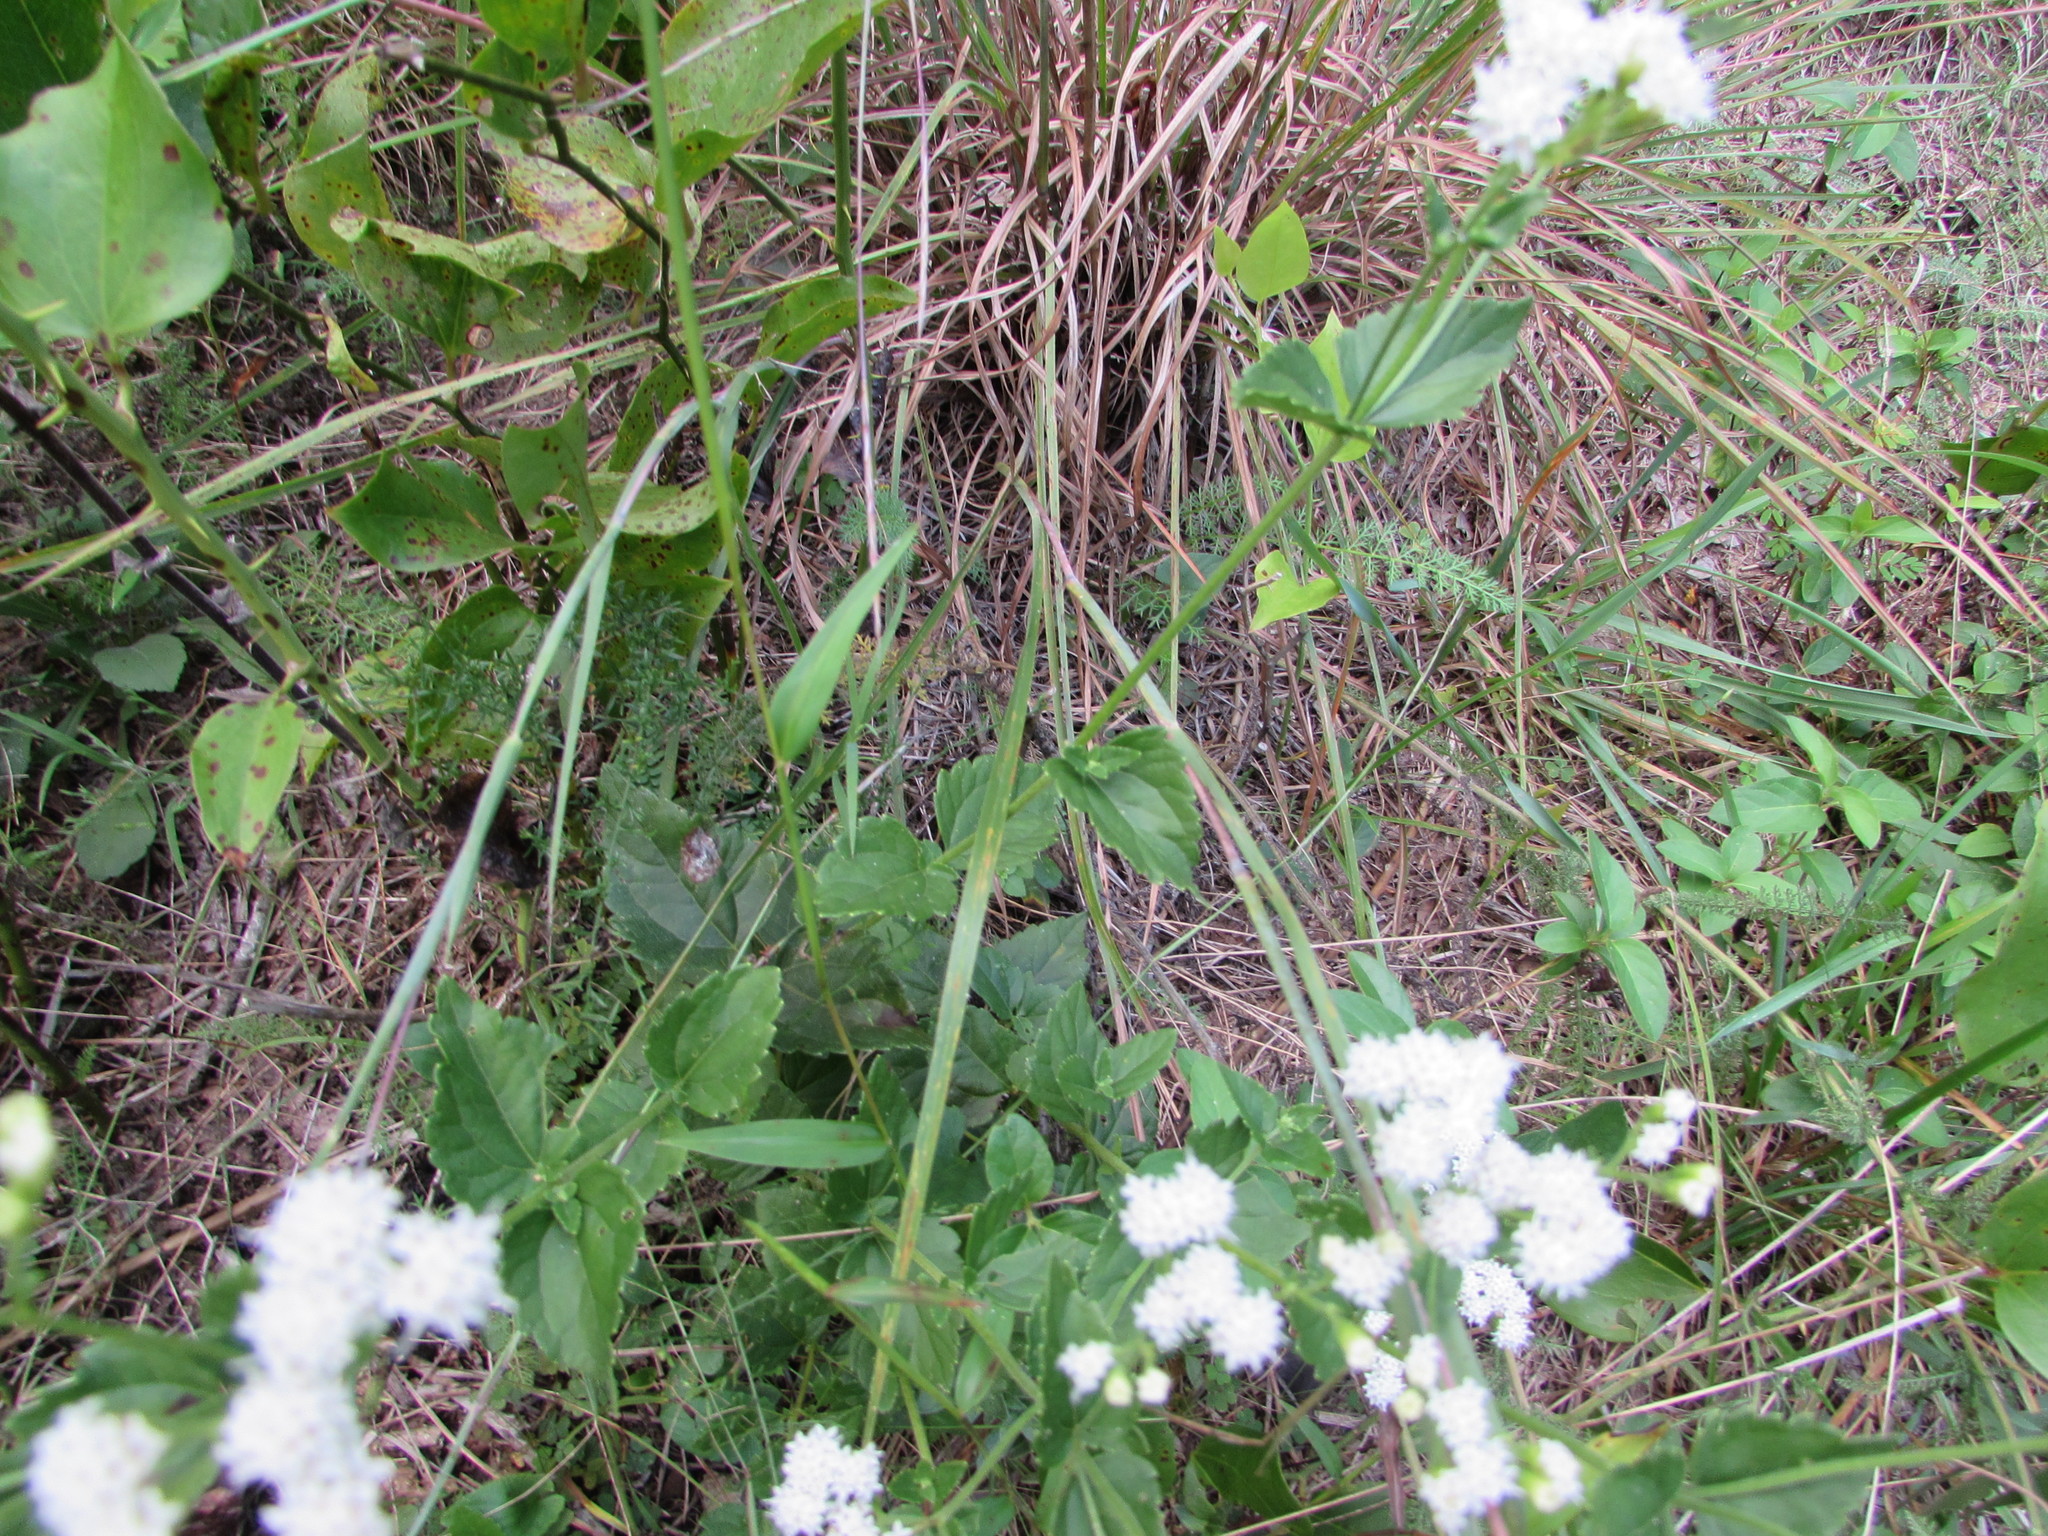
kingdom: Plantae
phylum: Tracheophyta
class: Magnoliopsida
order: Asterales
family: Asteraceae
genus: Ageratina
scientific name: Ageratina aromatica
